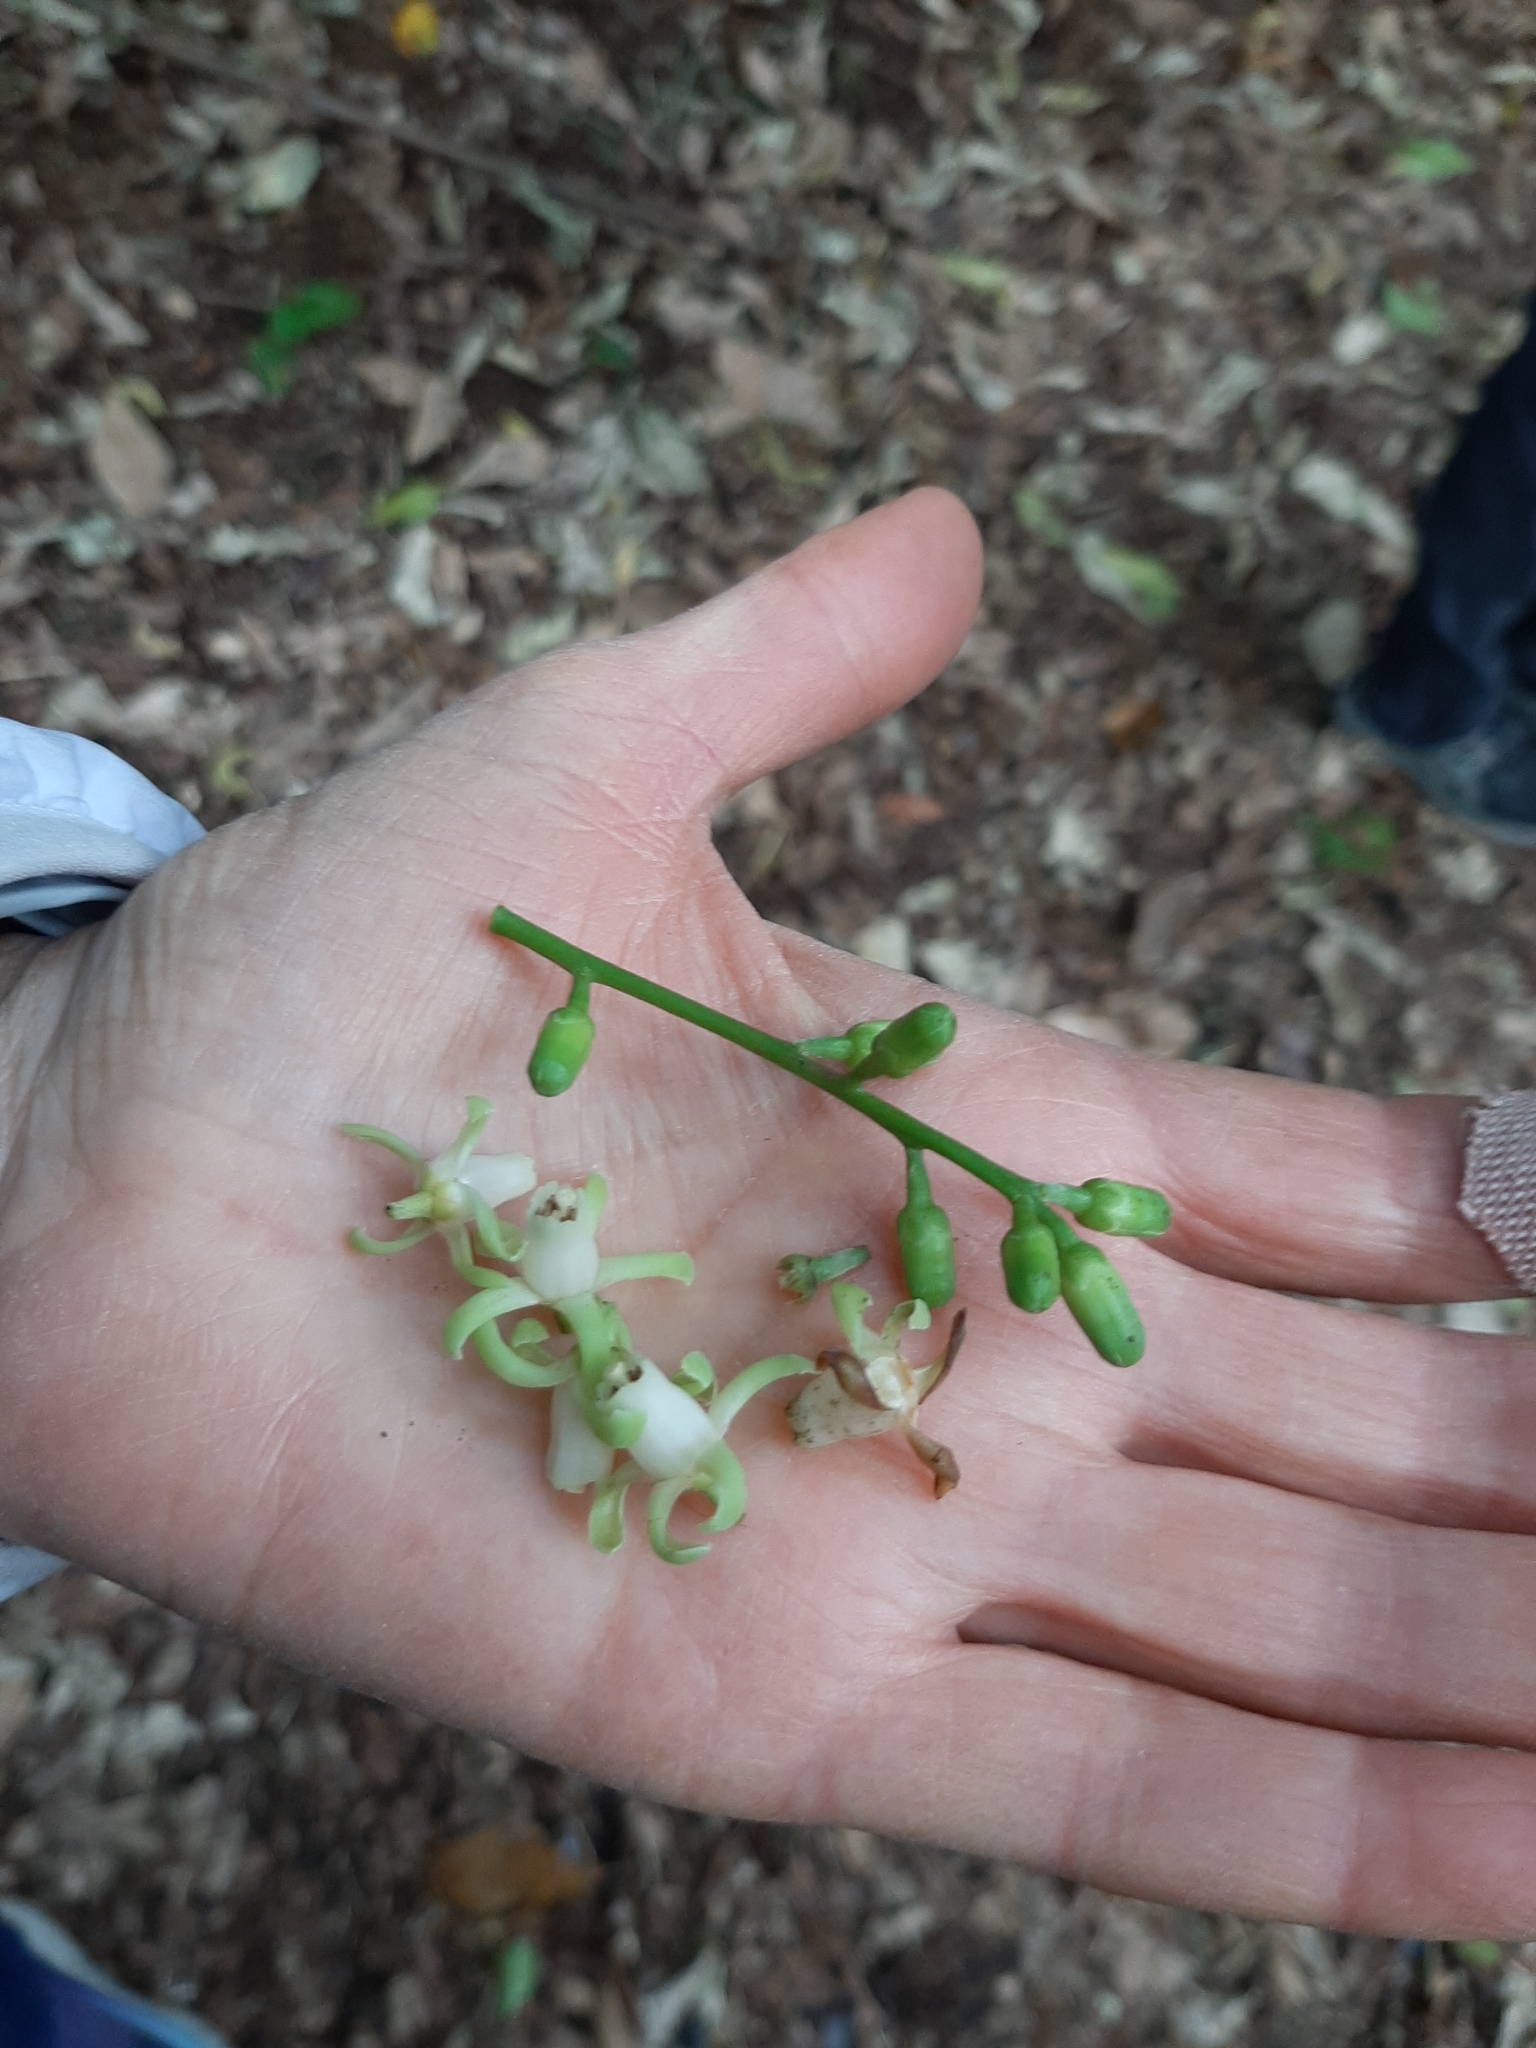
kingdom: Plantae
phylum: Tracheophyta
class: Magnoliopsida
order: Sapindales
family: Meliaceae
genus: Didymocheton
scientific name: Didymocheton spectabilis
